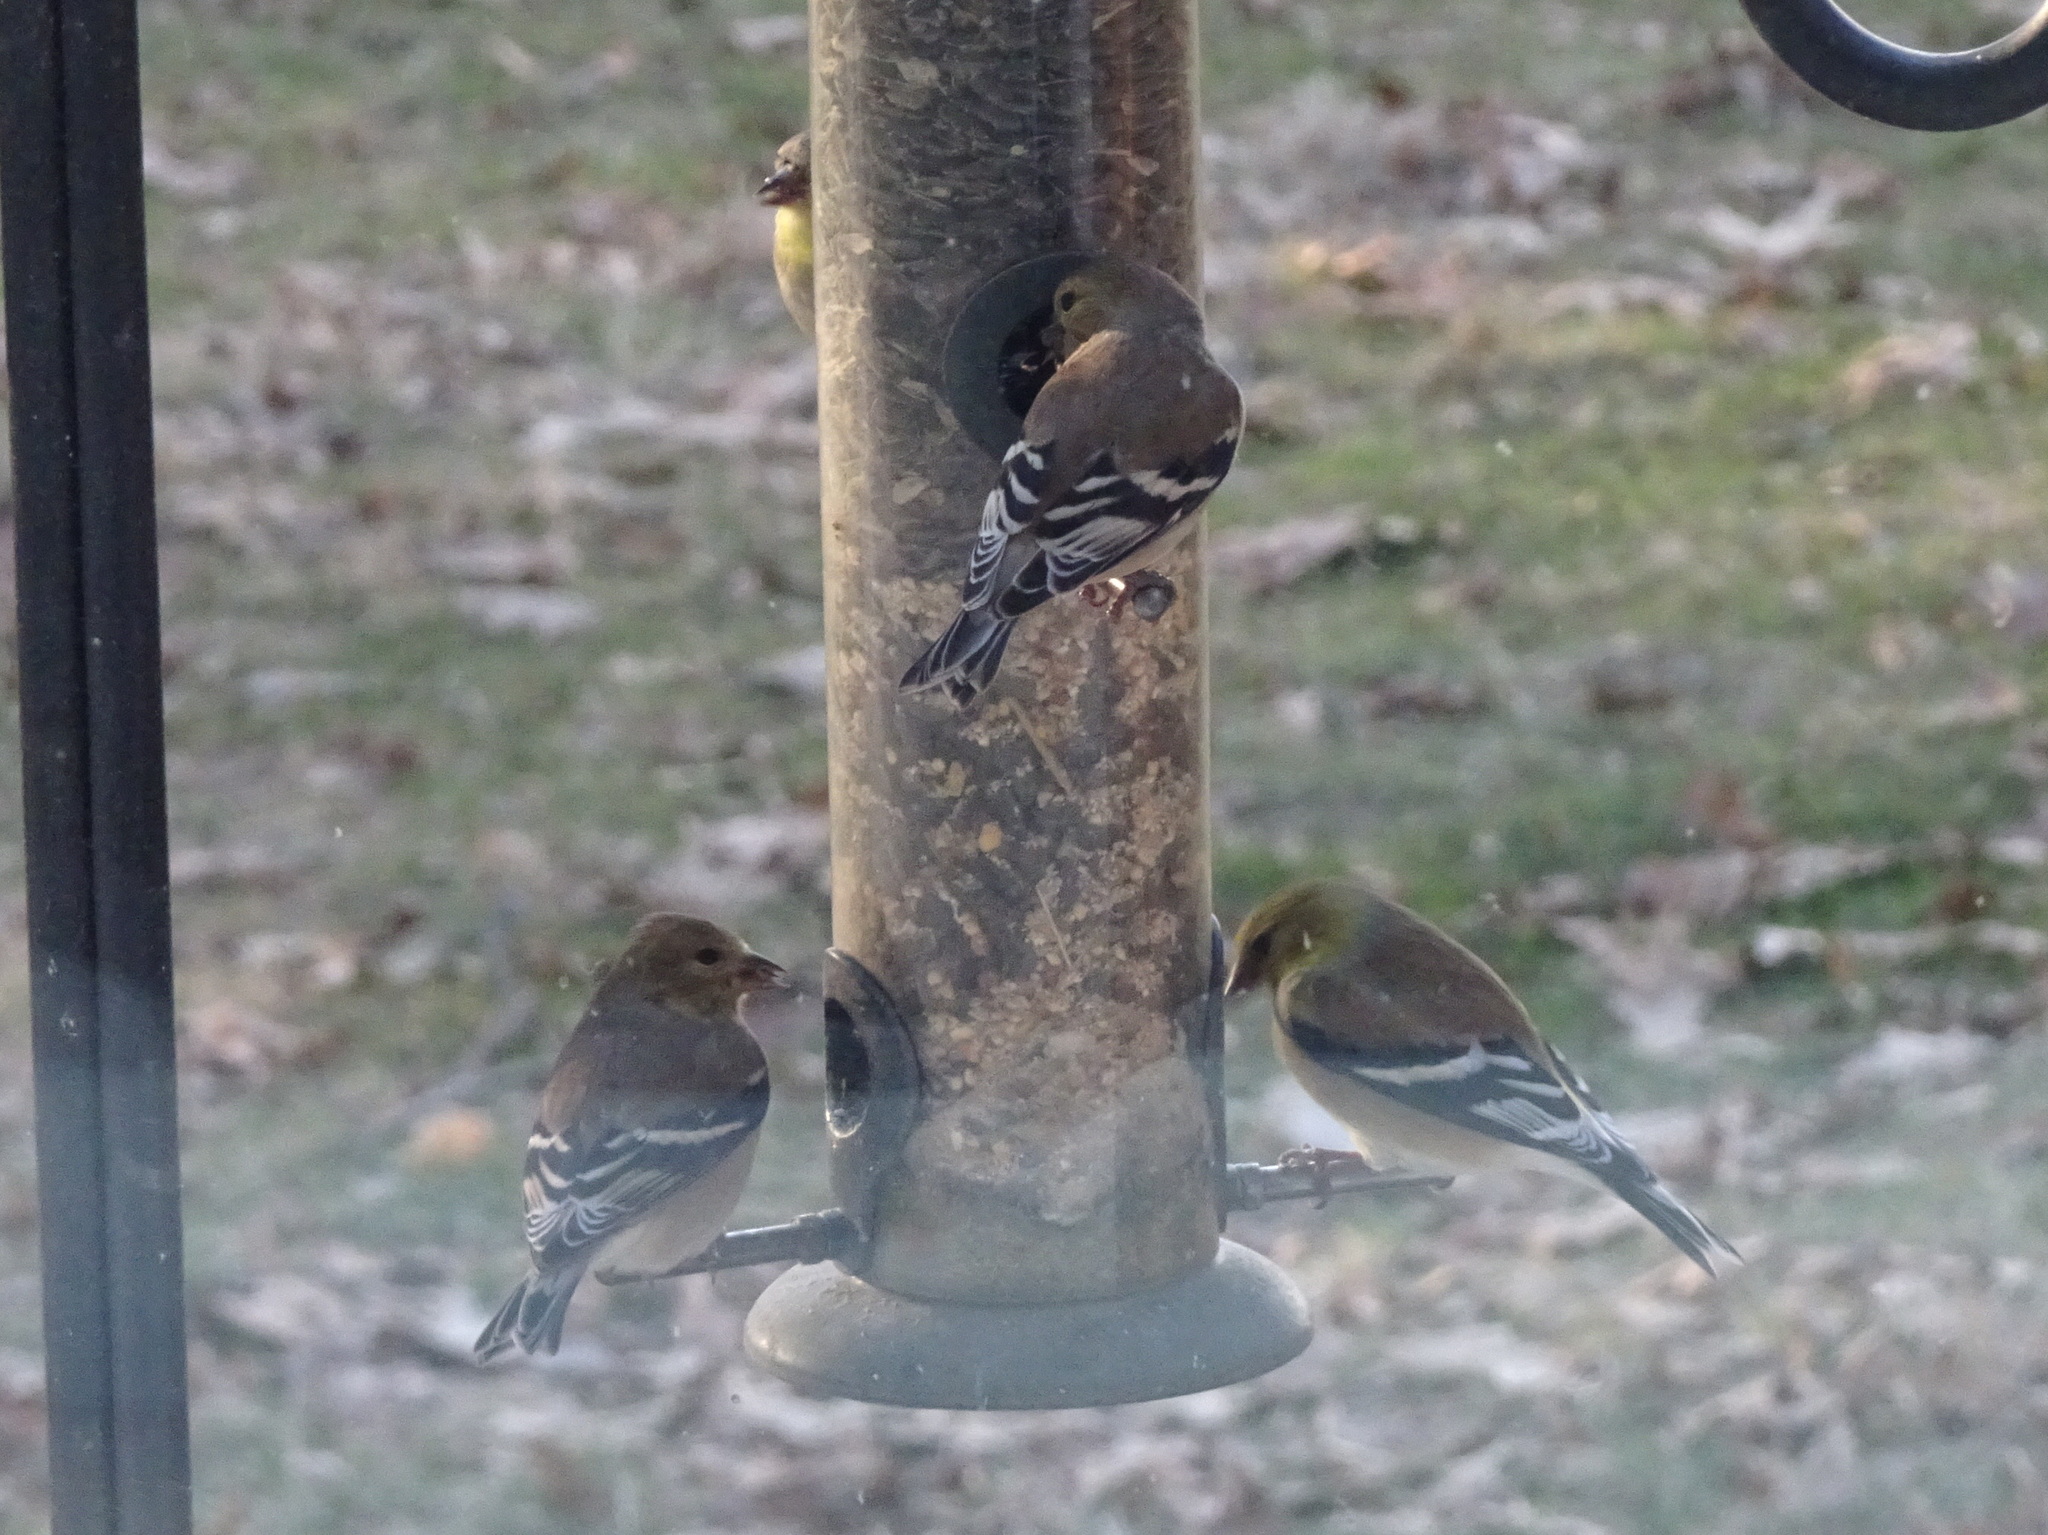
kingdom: Animalia
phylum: Chordata
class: Aves
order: Passeriformes
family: Fringillidae
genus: Spinus
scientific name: Spinus tristis
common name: American goldfinch
